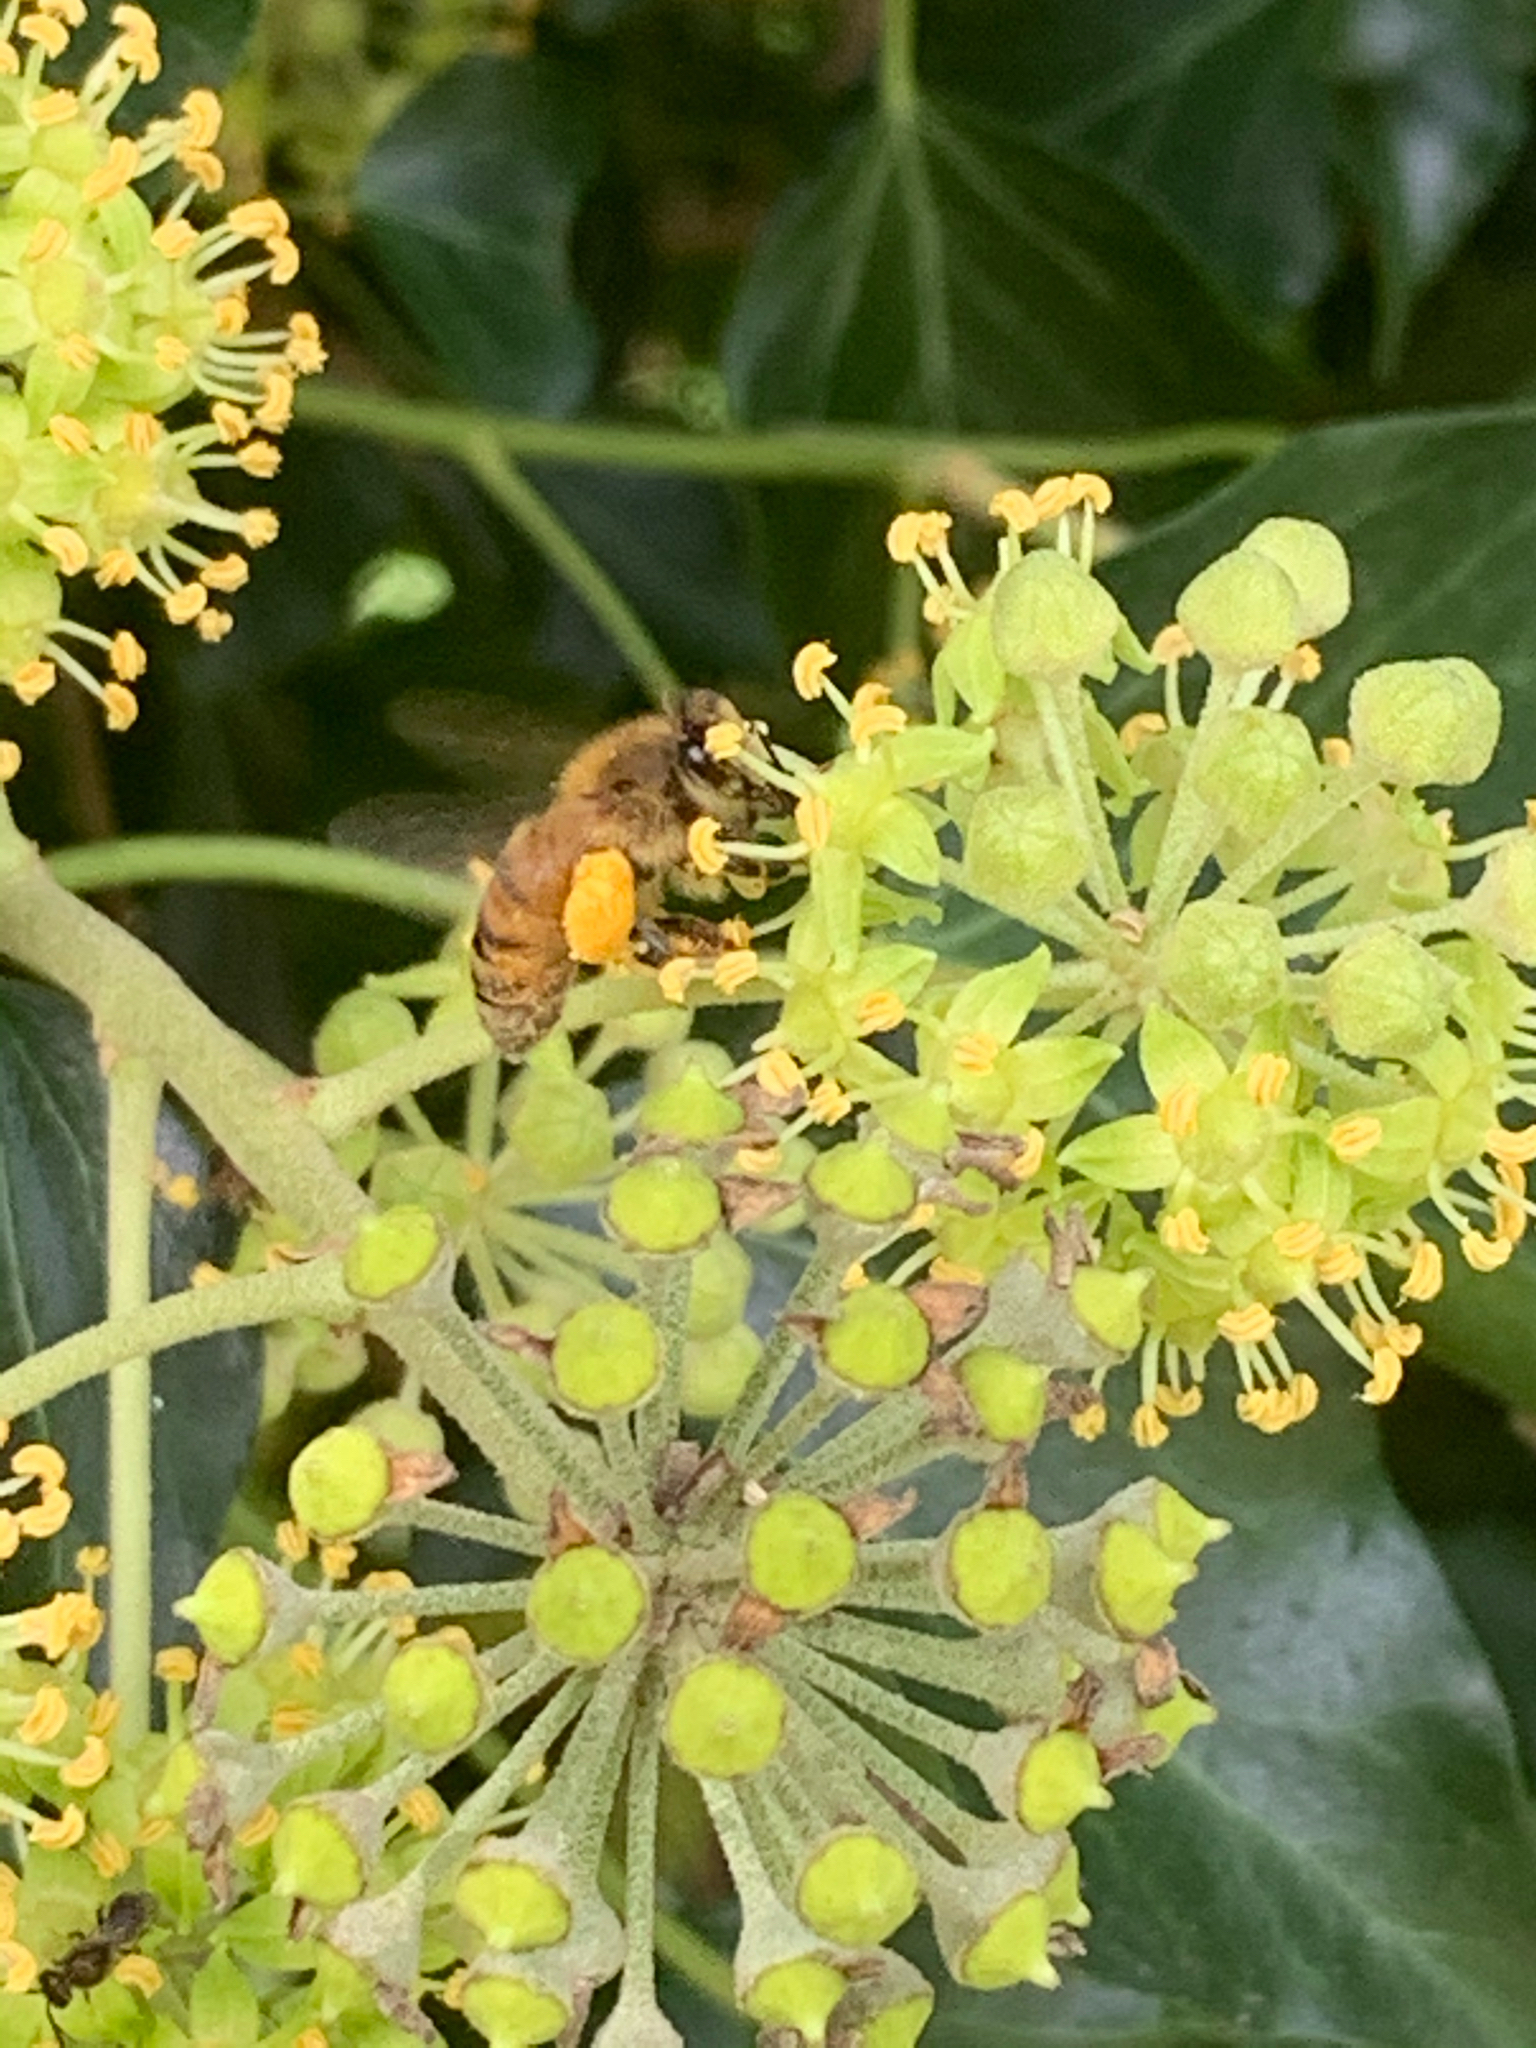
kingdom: Animalia
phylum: Arthropoda
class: Insecta
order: Hymenoptera
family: Apidae
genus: Apis
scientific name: Apis mellifera
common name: Honey bee
